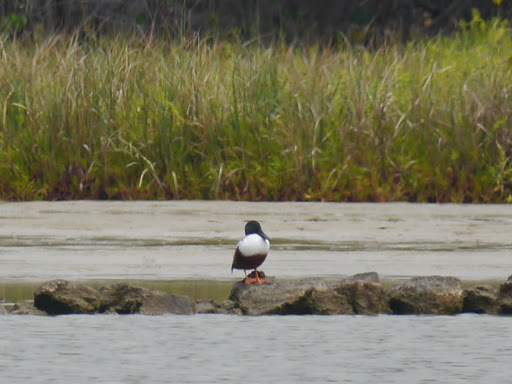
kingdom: Animalia
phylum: Chordata
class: Aves
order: Anseriformes
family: Anatidae
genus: Spatula
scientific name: Spatula clypeata
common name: Northern shoveler
